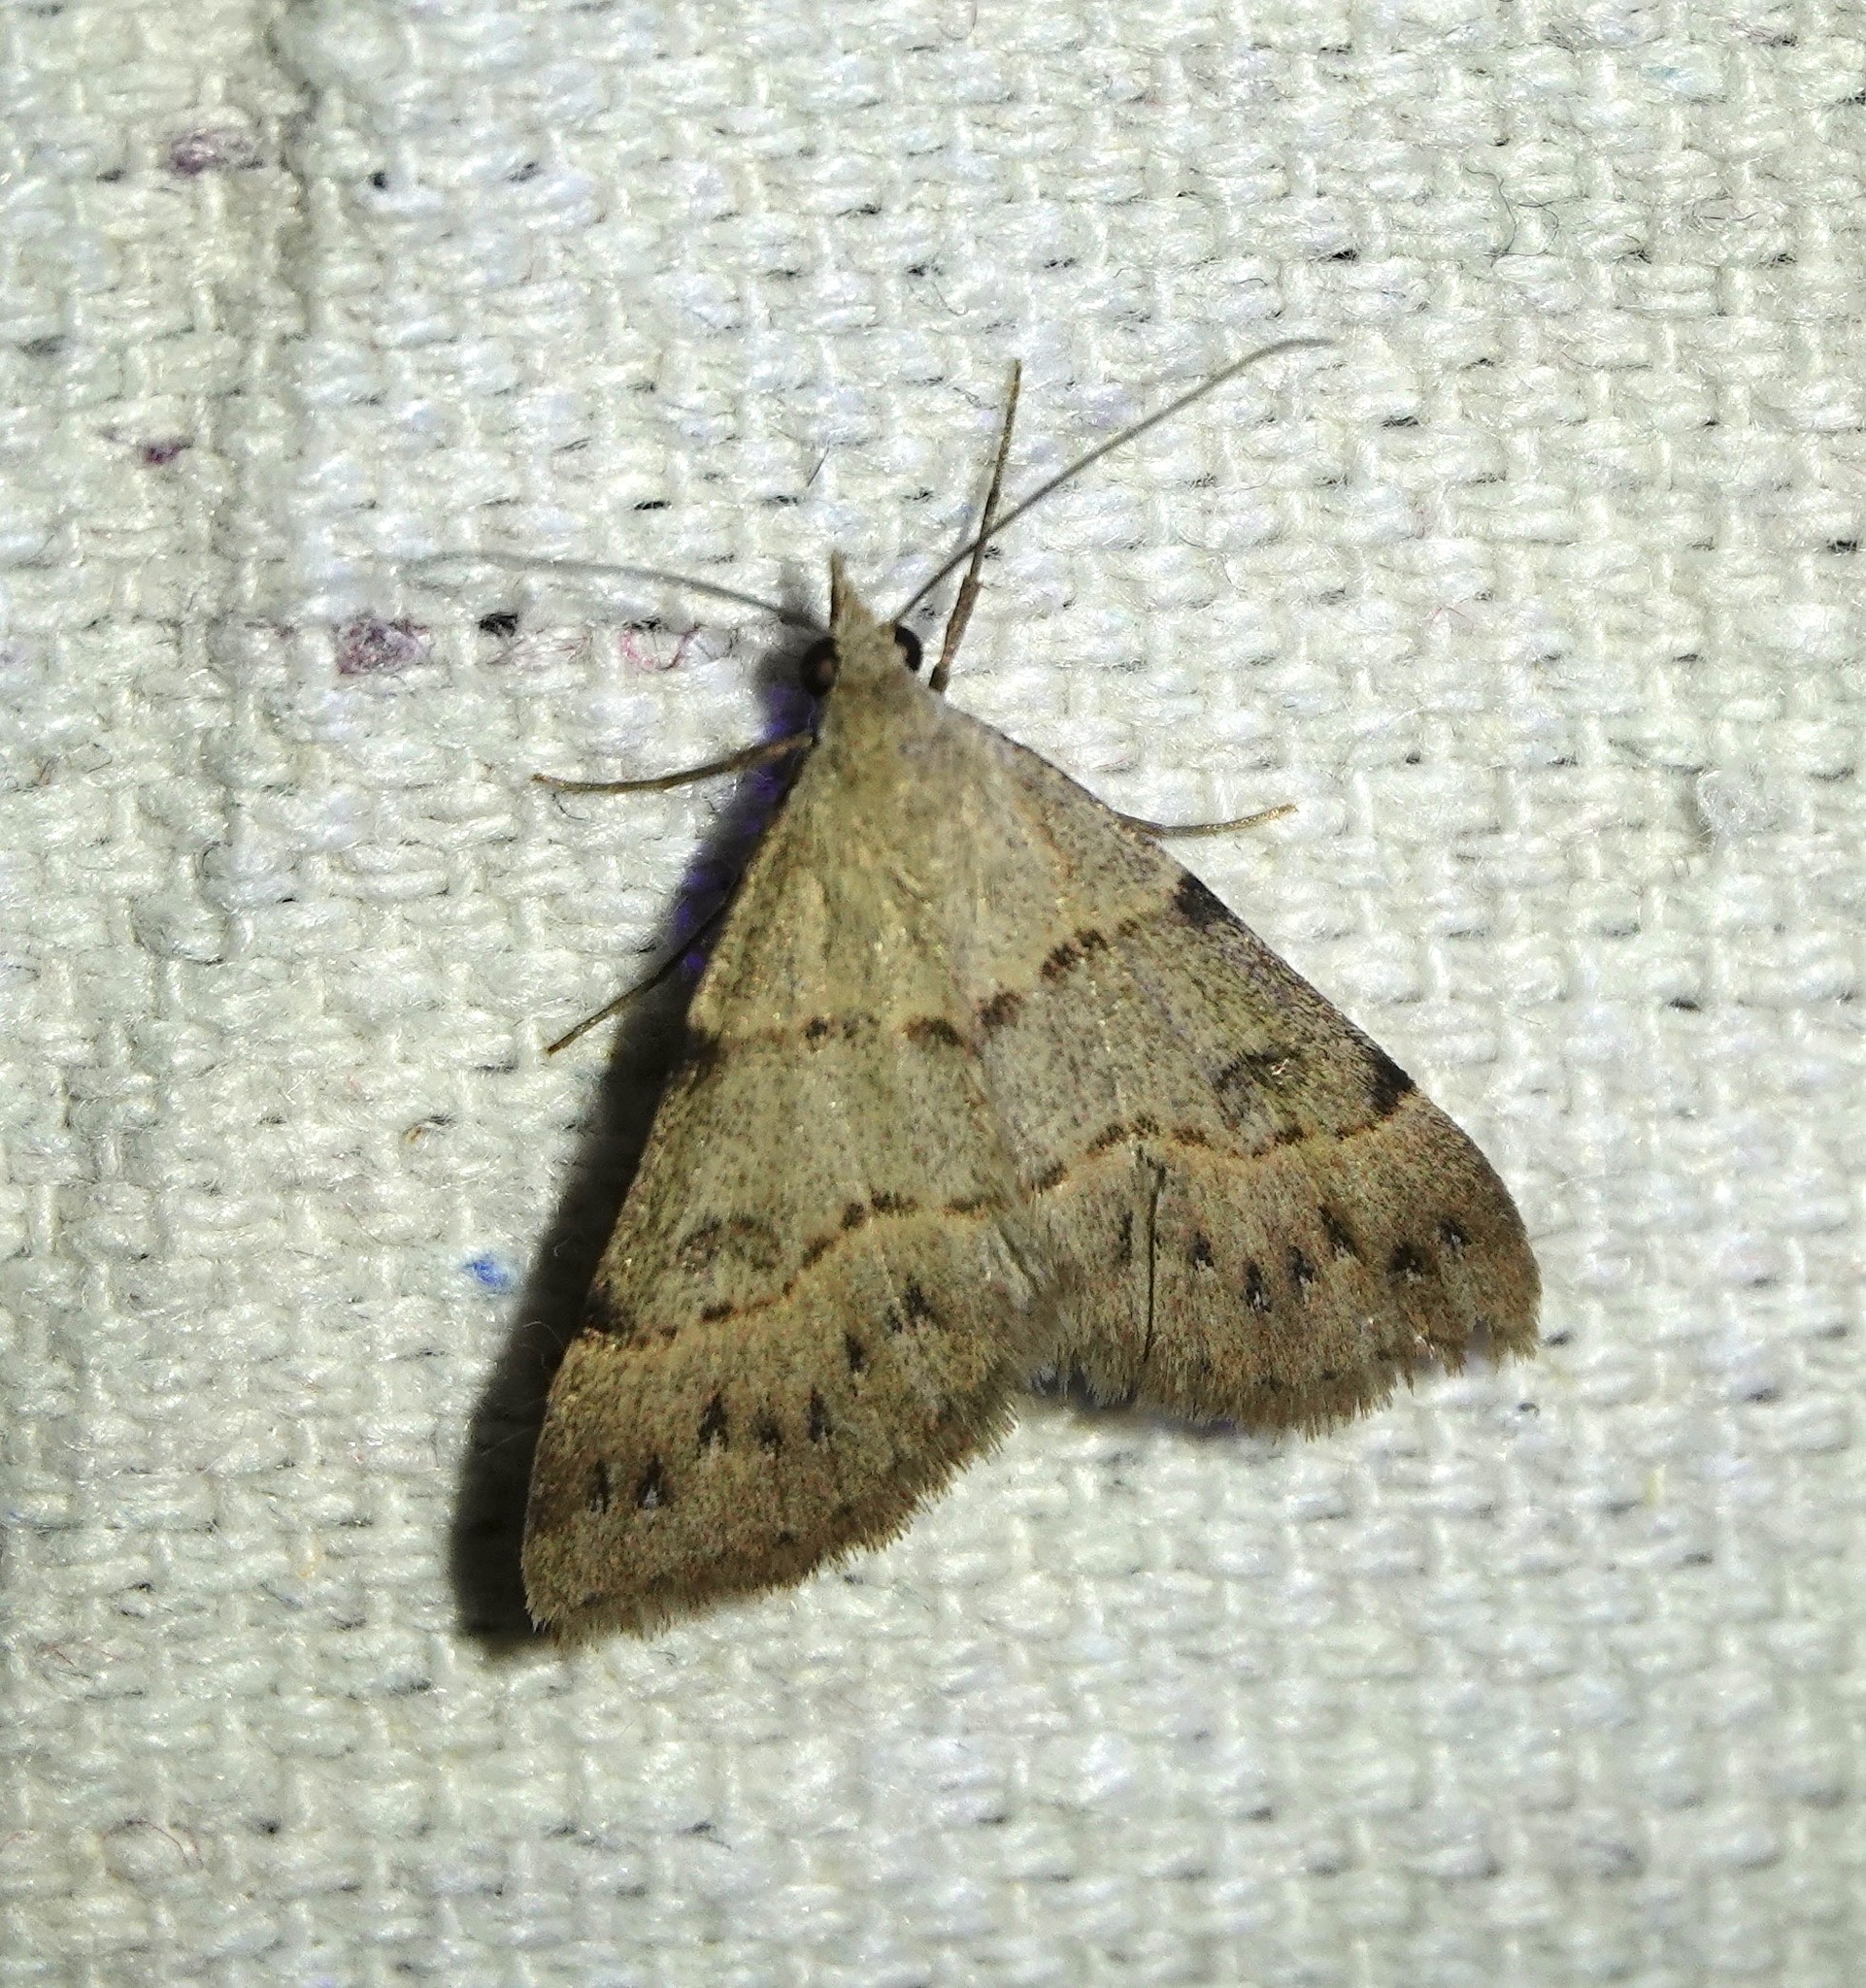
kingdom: Animalia
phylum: Arthropoda
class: Insecta
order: Lepidoptera
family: Erebidae
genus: Hemeroplanis
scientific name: Hemeroplanis historialis
